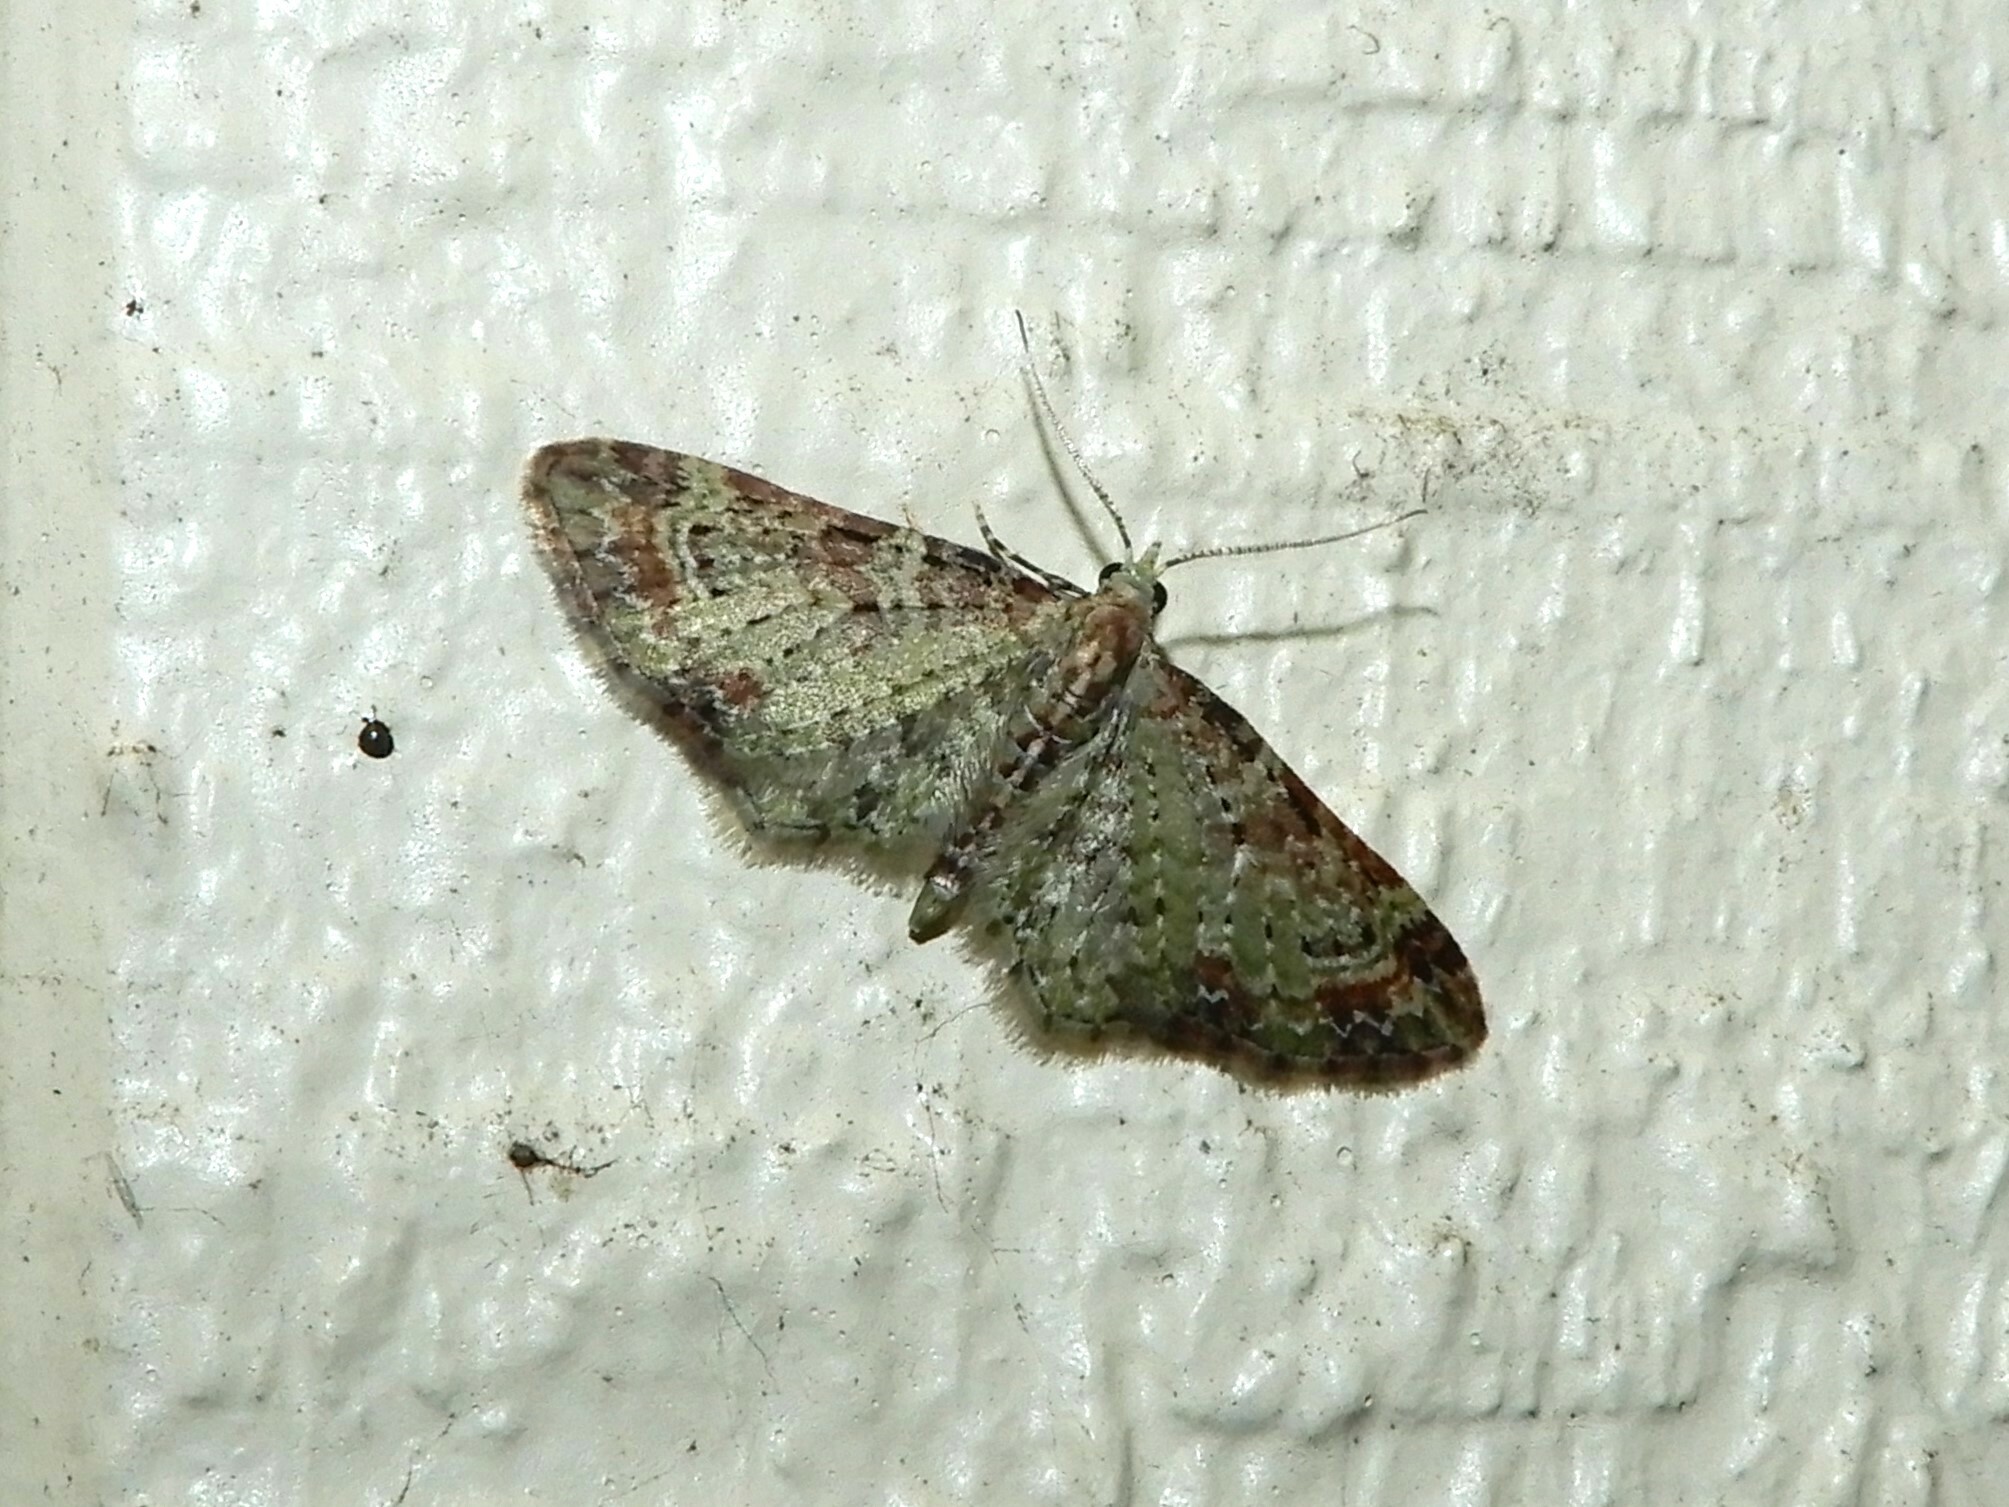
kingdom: Animalia
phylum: Arthropoda
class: Insecta
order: Lepidoptera
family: Geometridae
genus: Pasiphila
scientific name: Pasiphila plinthina
